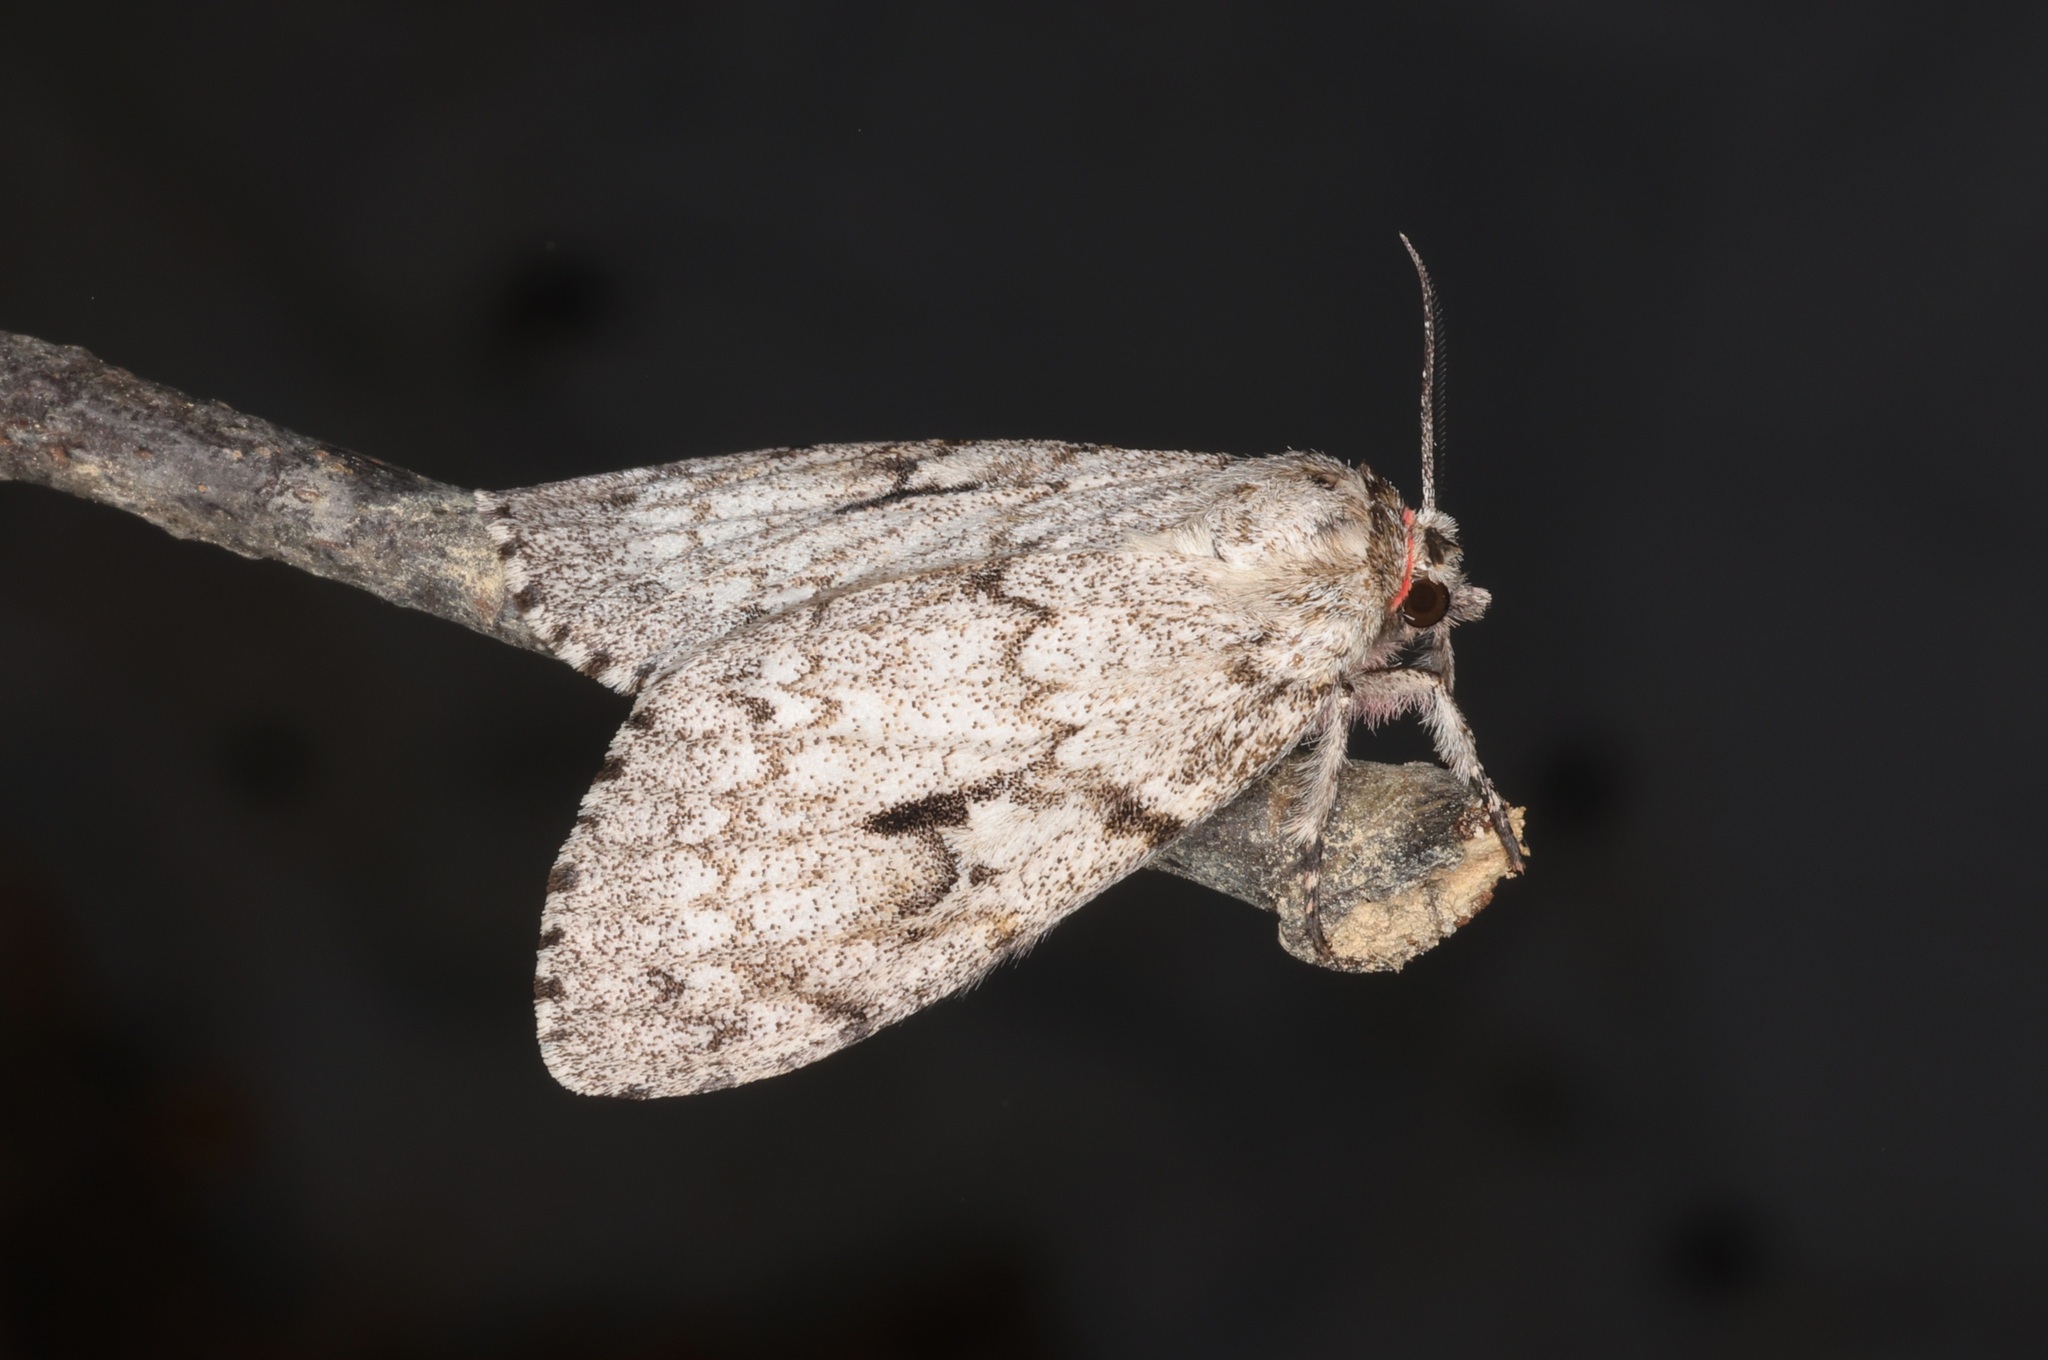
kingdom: Animalia
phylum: Arthropoda
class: Insecta
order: Lepidoptera
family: Erebidae
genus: Lymantria
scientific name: Lymantria sinica
